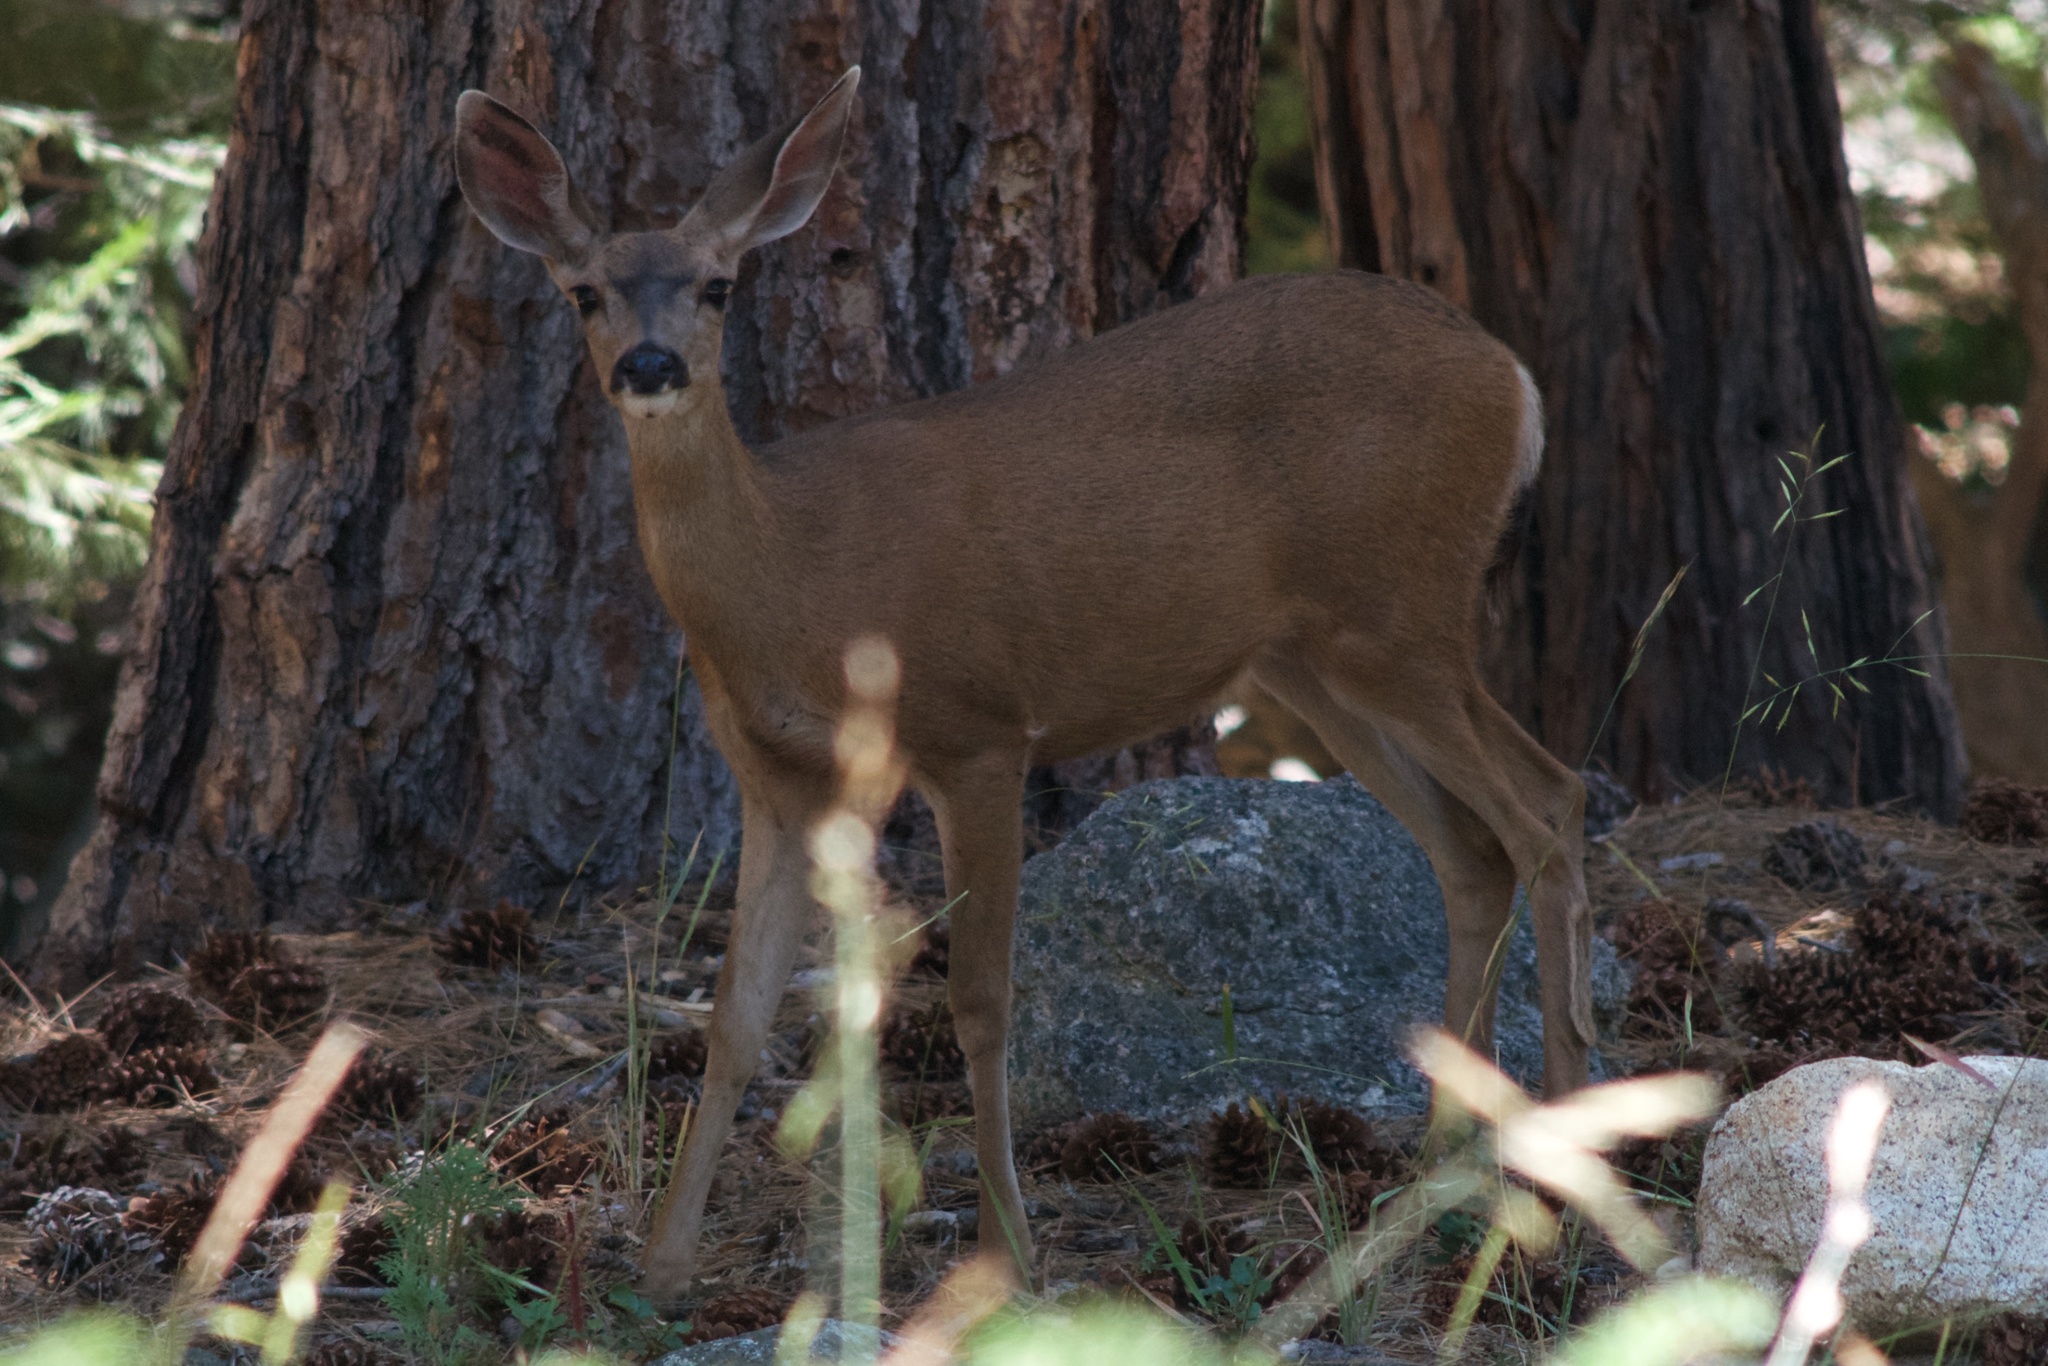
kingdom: Animalia
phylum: Chordata
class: Mammalia
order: Artiodactyla
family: Cervidae
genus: Odocoileus
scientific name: Odocoileus hemionus
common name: Mule deer
